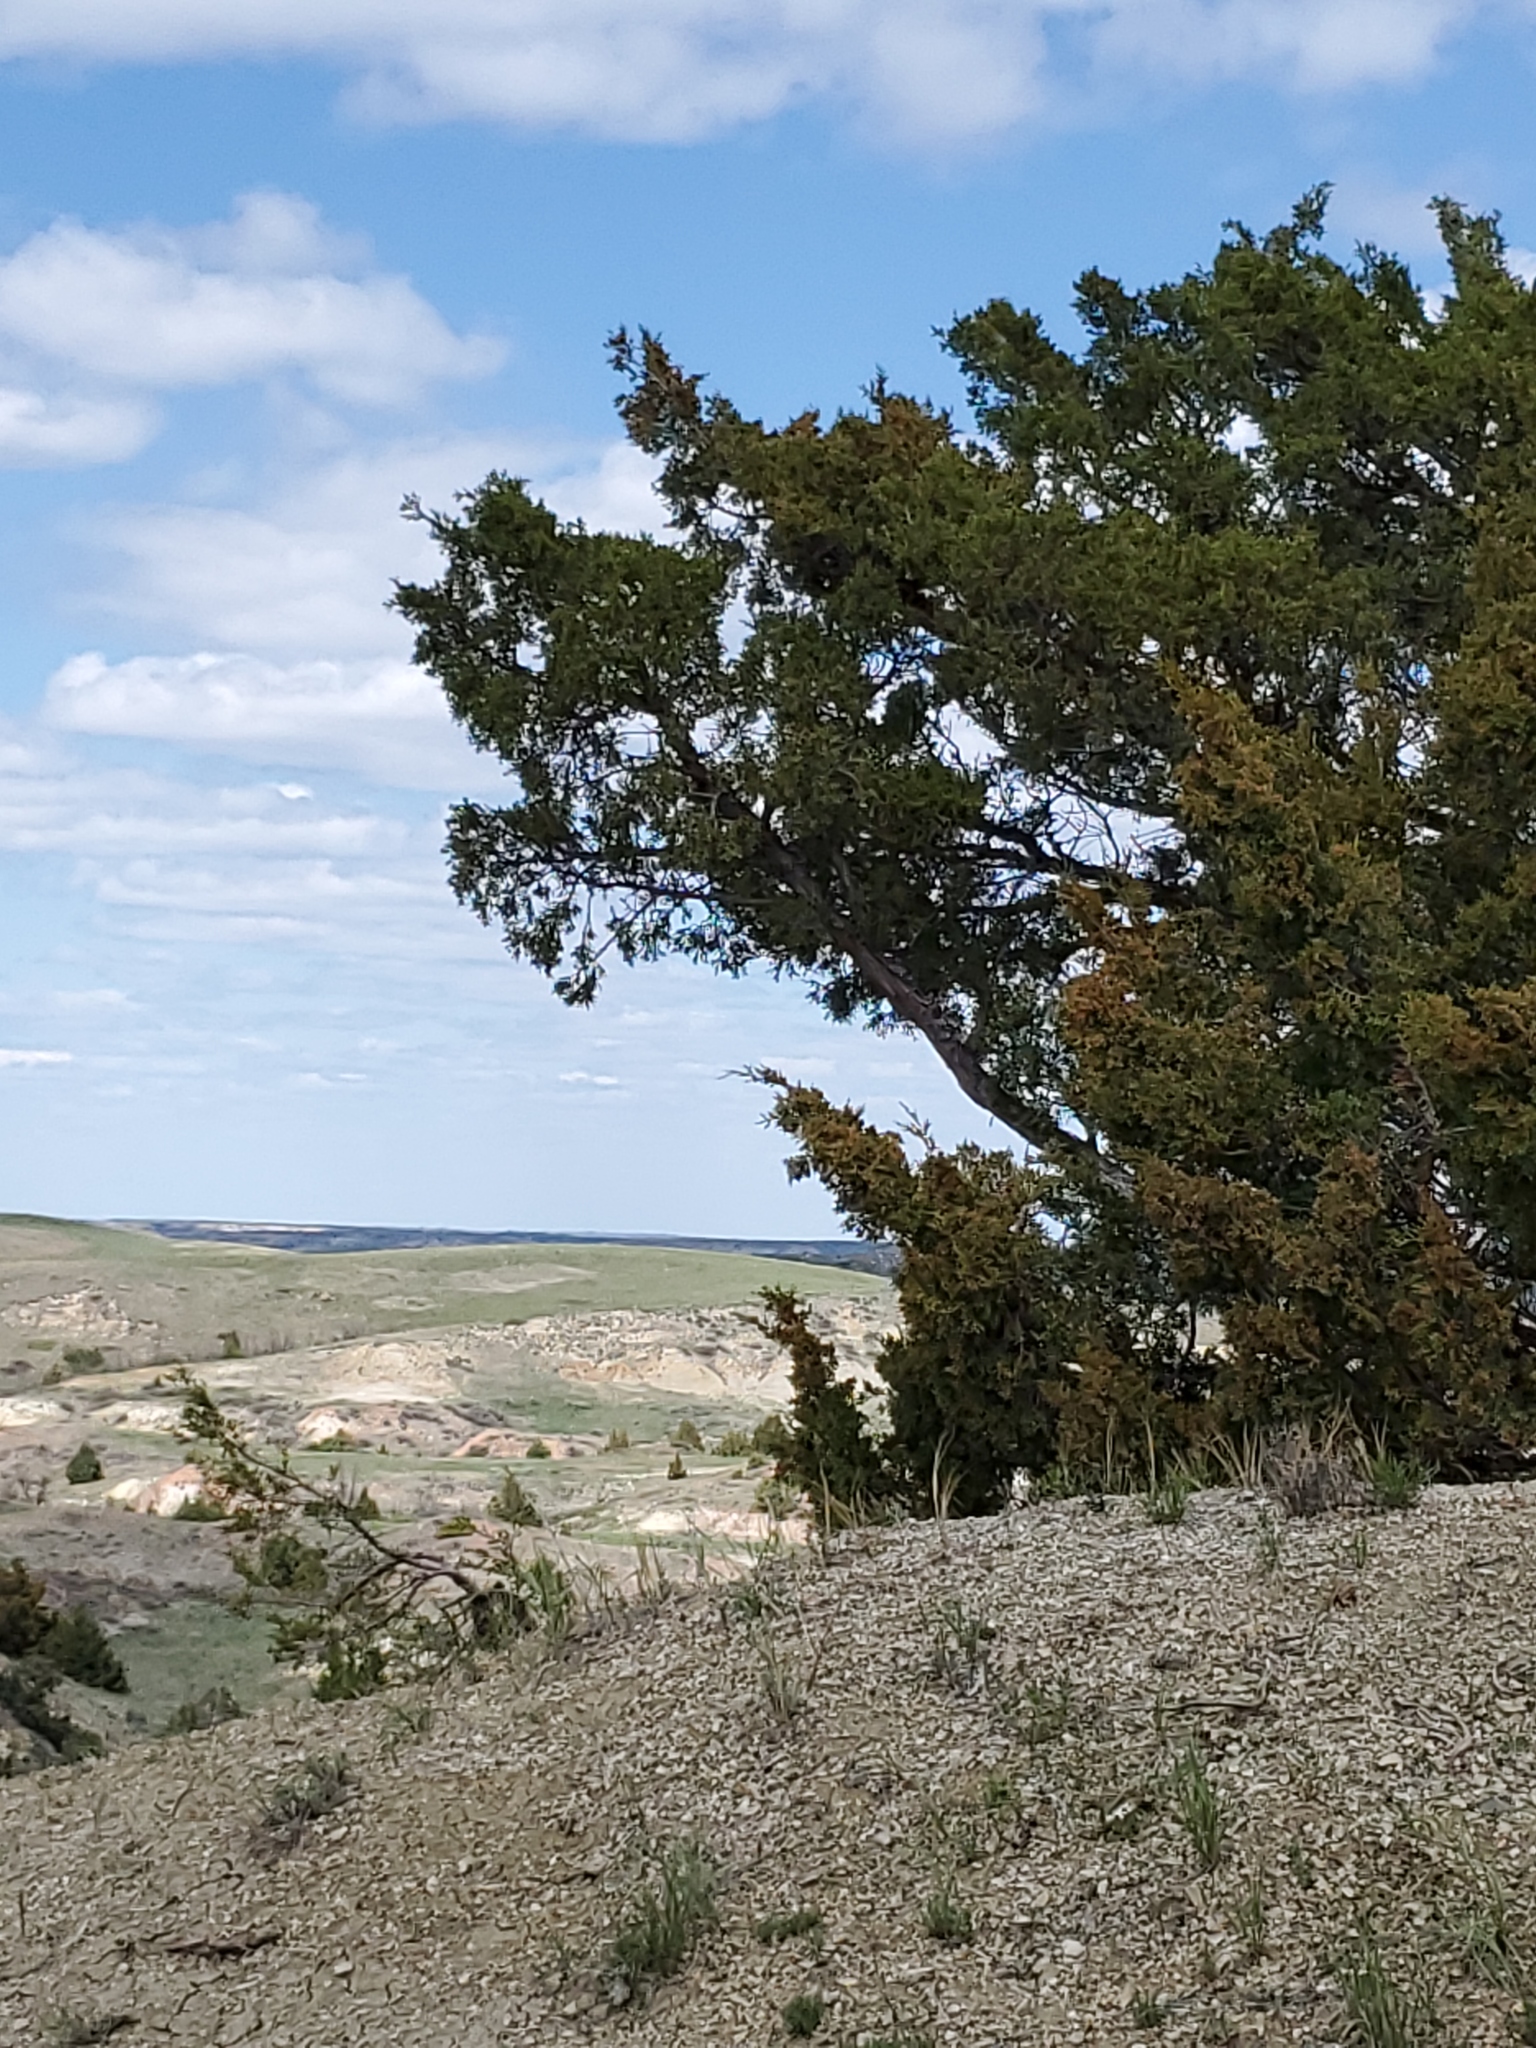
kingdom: Plantae
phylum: Tracheophyta
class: Pinopsida
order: Pinales
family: Cupressaceae
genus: Juniperus
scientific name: Juniperus scopulorum
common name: Rocky mountain juniper
